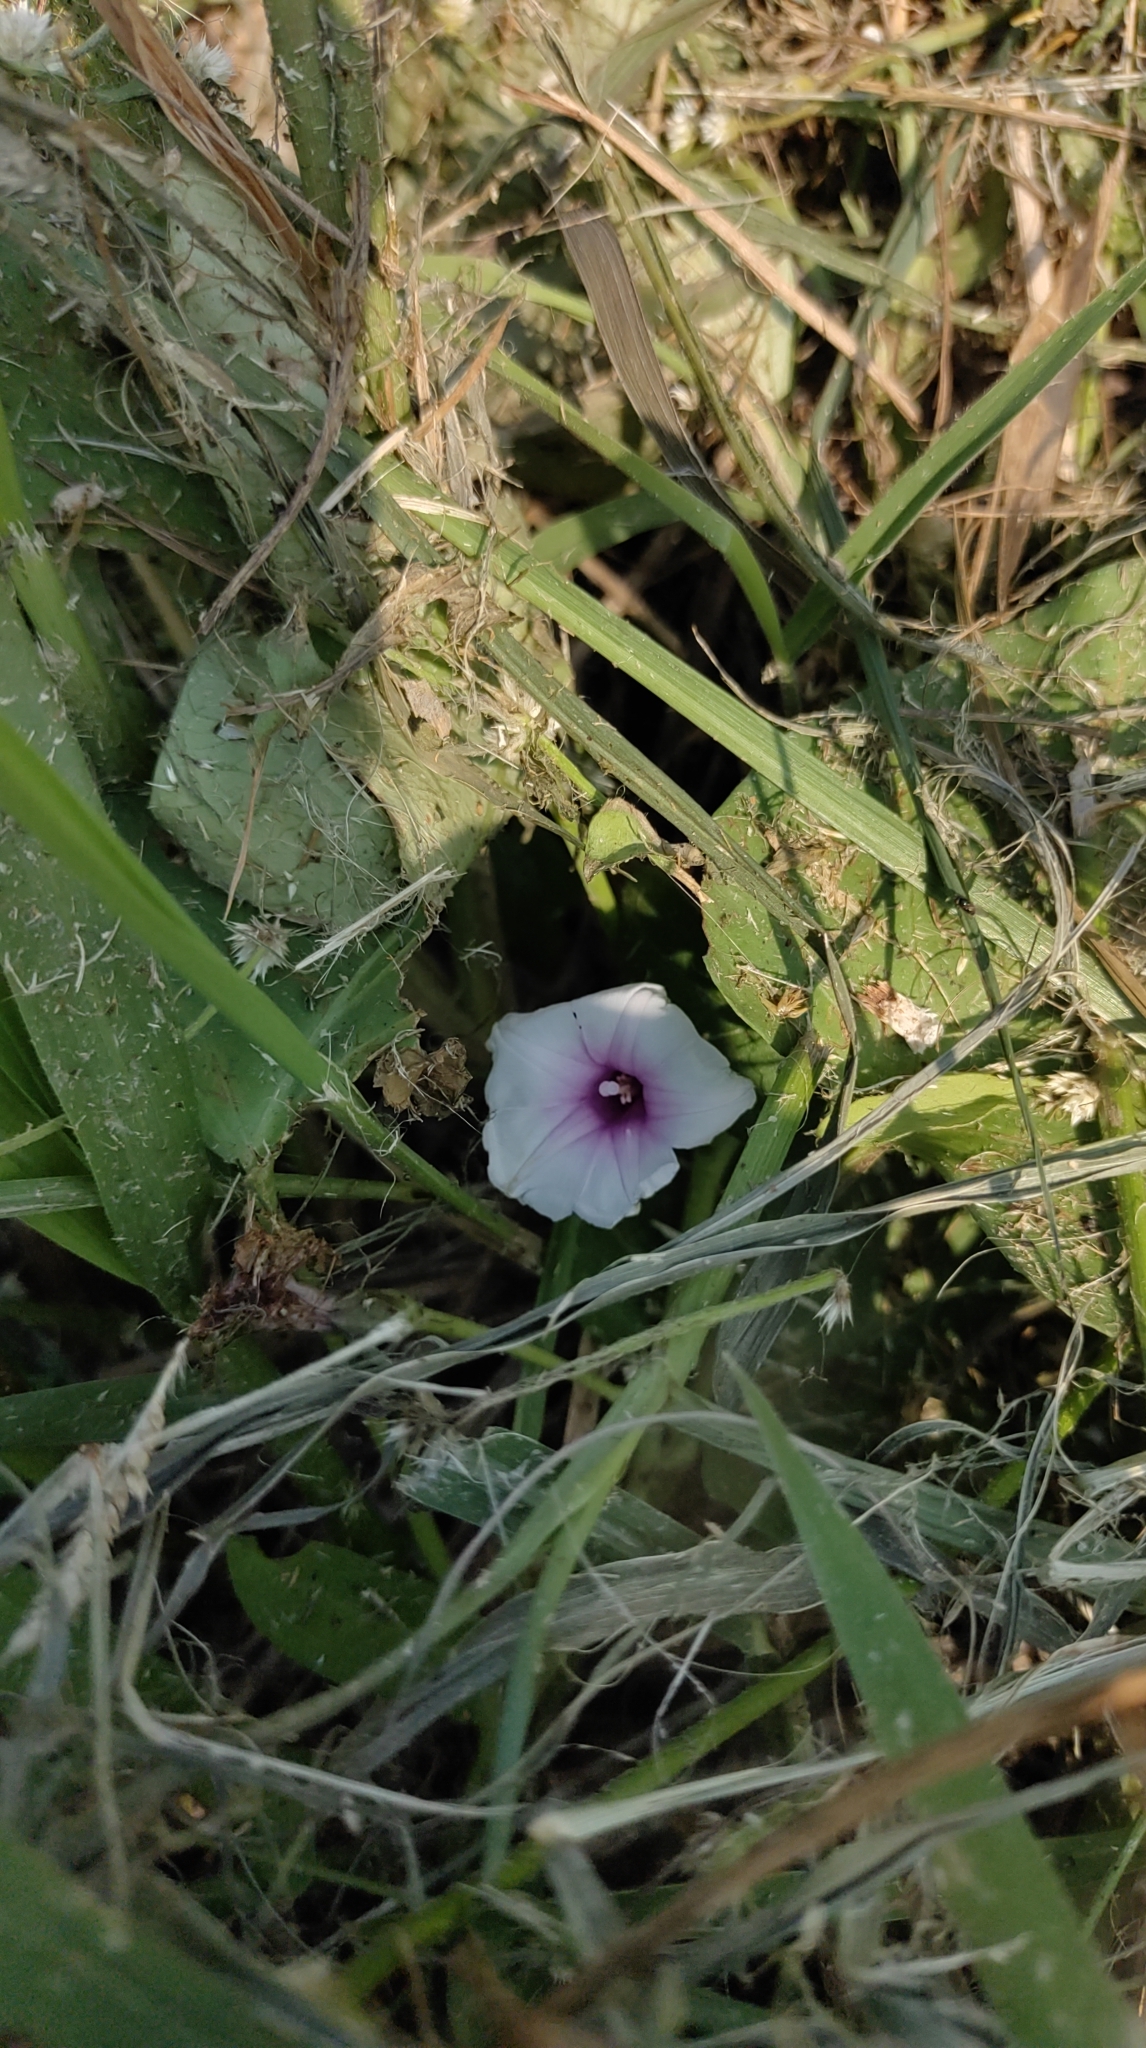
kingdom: Plantae
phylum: Tracheophyta
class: Magnoliopsida
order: Solanales
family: Convolvulaceae
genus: Ipomoea
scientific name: Ipomoea aquatica
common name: Swamp morning-glory
